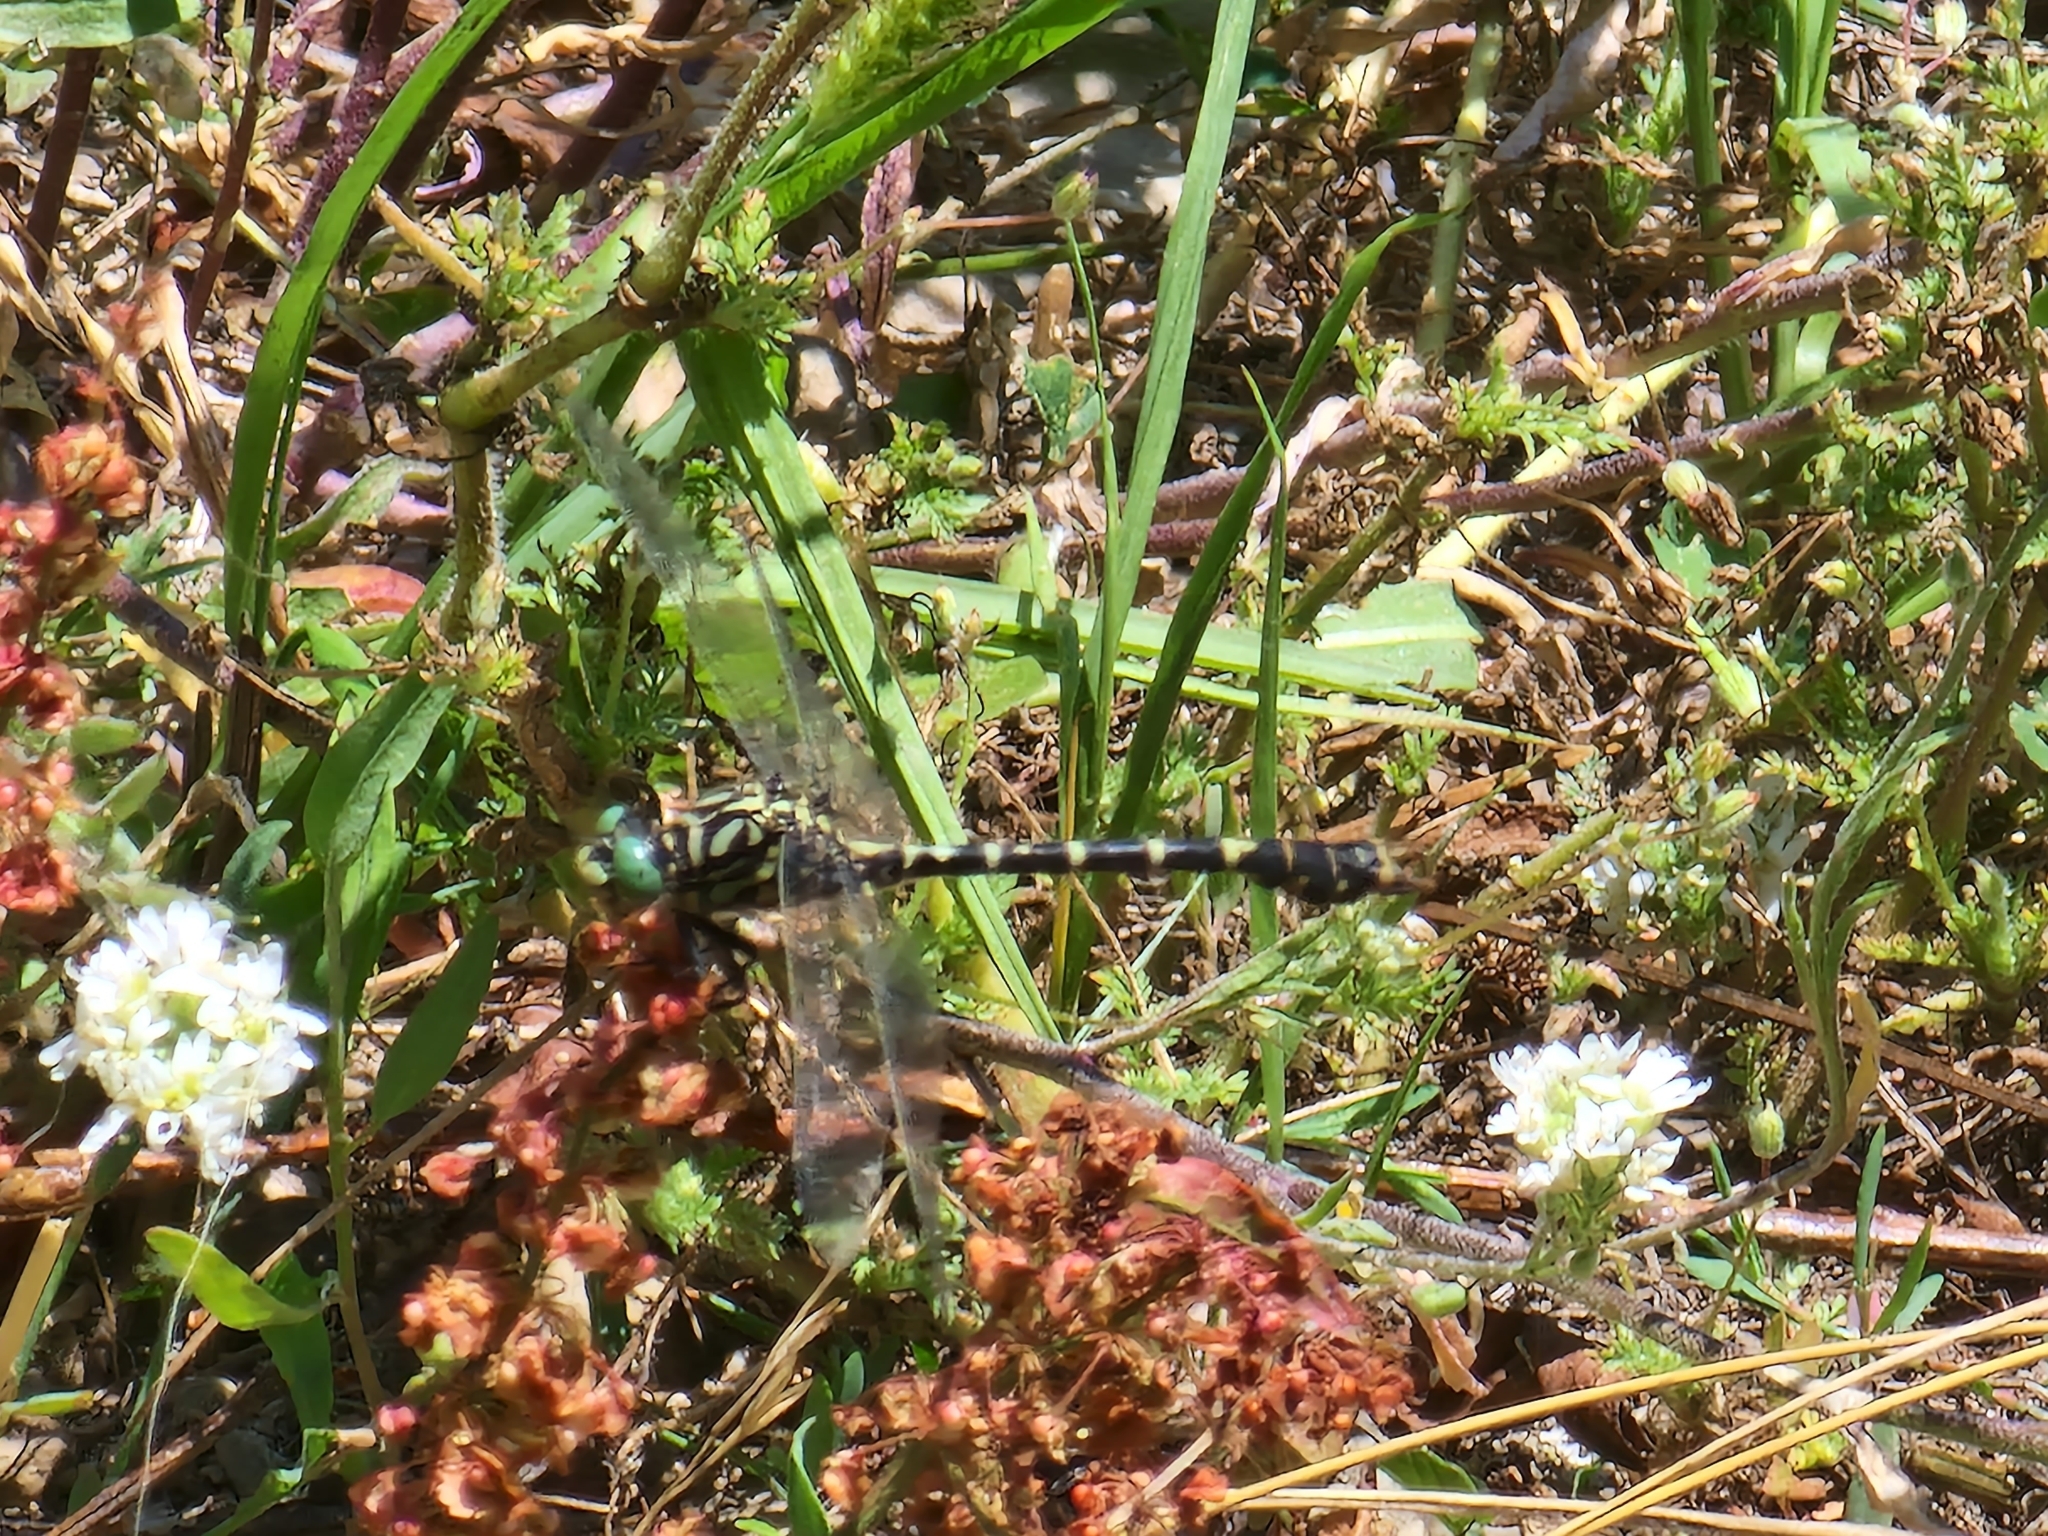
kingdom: Animalia
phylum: Arthropoda
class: Insecta
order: Odonata
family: Gomphidae
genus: Onychogomphus
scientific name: Onychogomphus forcipatus
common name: Small pincertail
